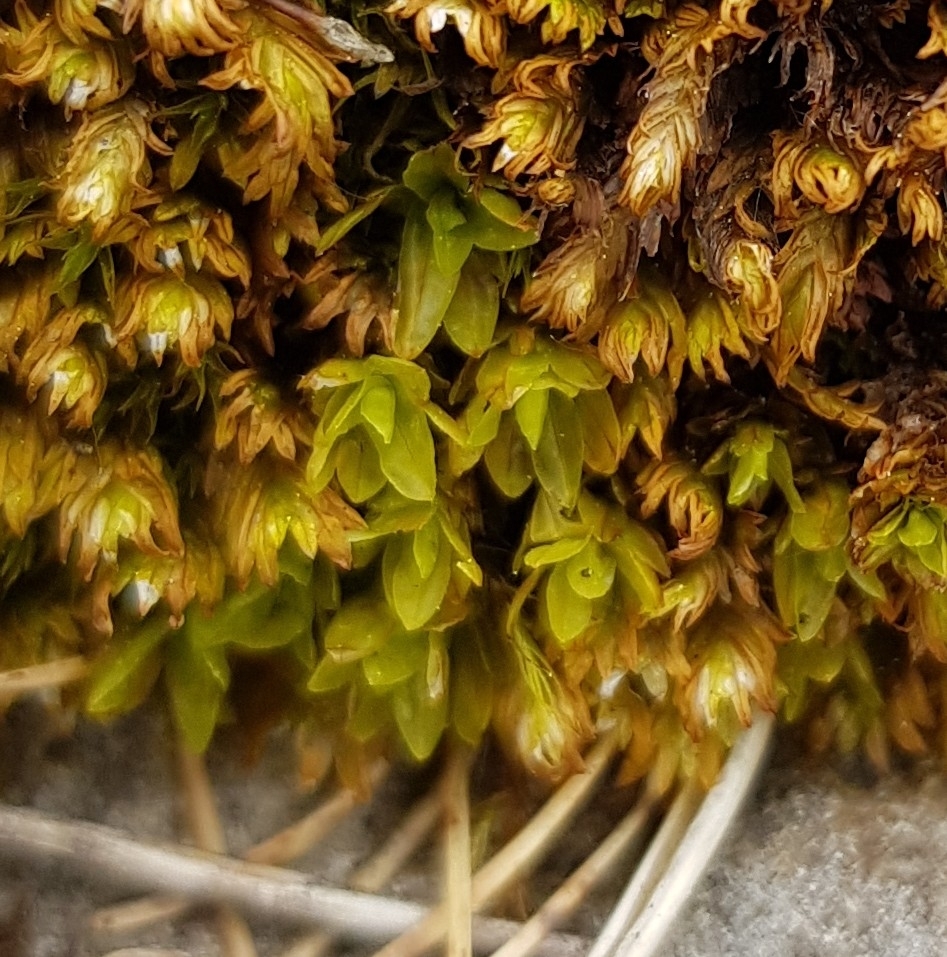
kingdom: Plantae
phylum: Bryophyta
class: Bryopsida
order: Encalyptales
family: Encalyptaceae
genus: Encalypta
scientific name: Encalypta streptocarpa
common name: Spiral extinguisher-moss
